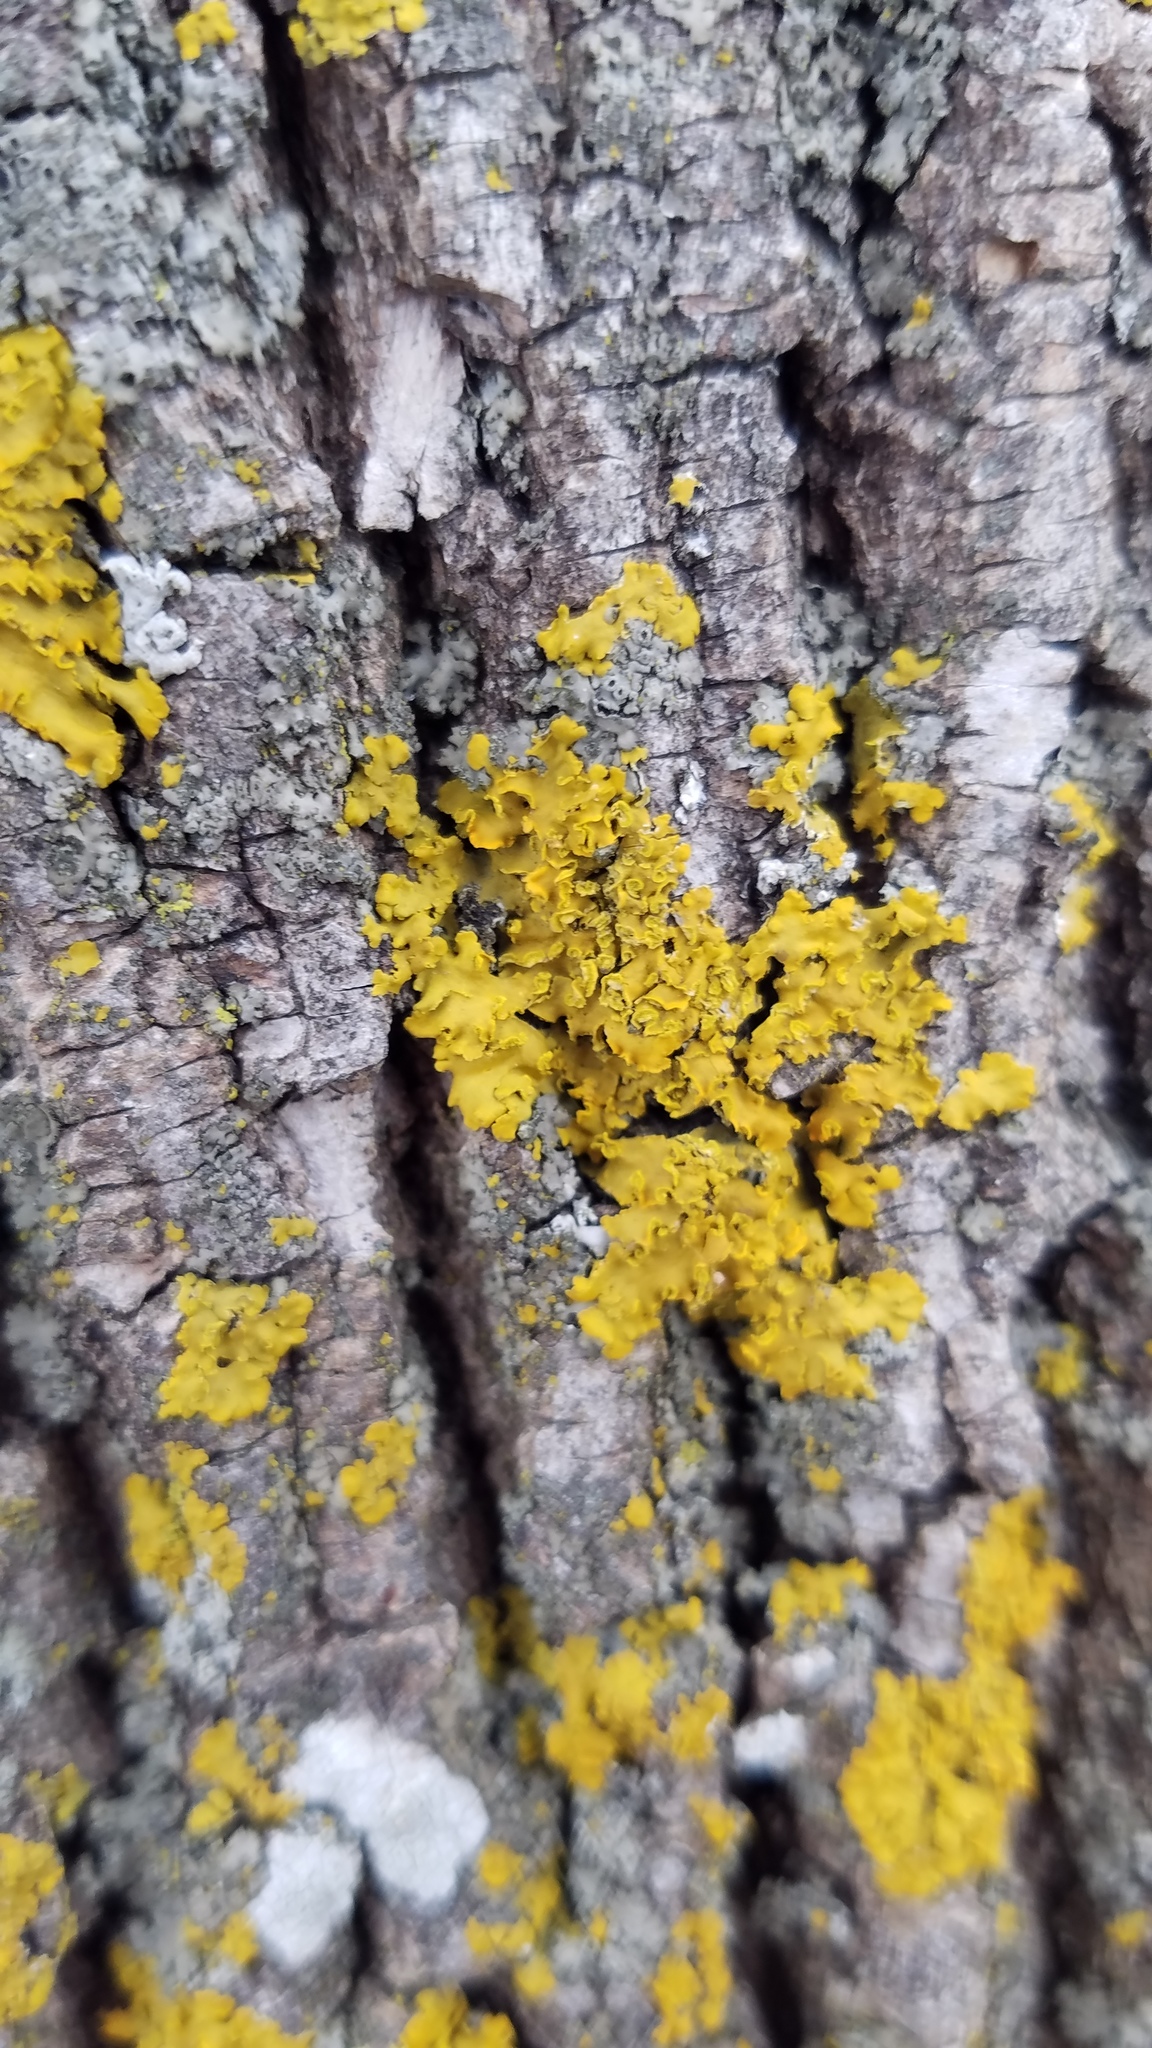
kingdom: Fungi
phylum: Ascomycota
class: Lecanoromycetes
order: Teloschistales
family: Teloschistaceae
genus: Oxneria
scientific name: Oxneria fallax
